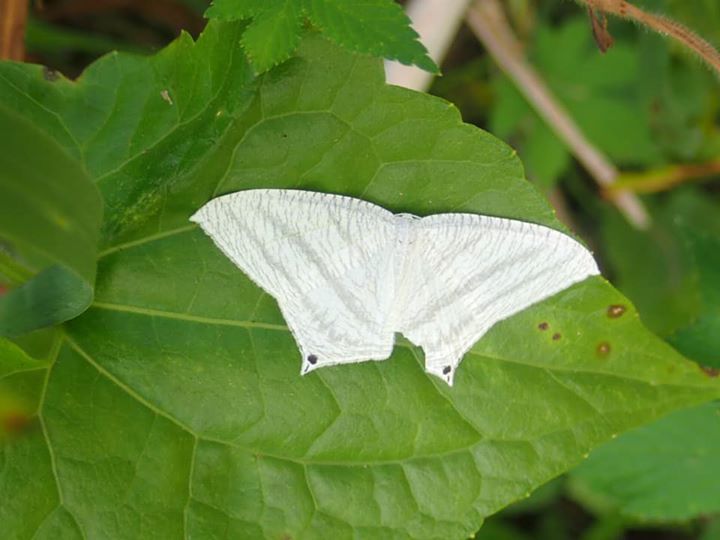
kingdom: Animalia
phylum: Arthropoda
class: Insecta
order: Lepidoptera
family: Uraniidae
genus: Micronia
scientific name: Micronia aculeata
